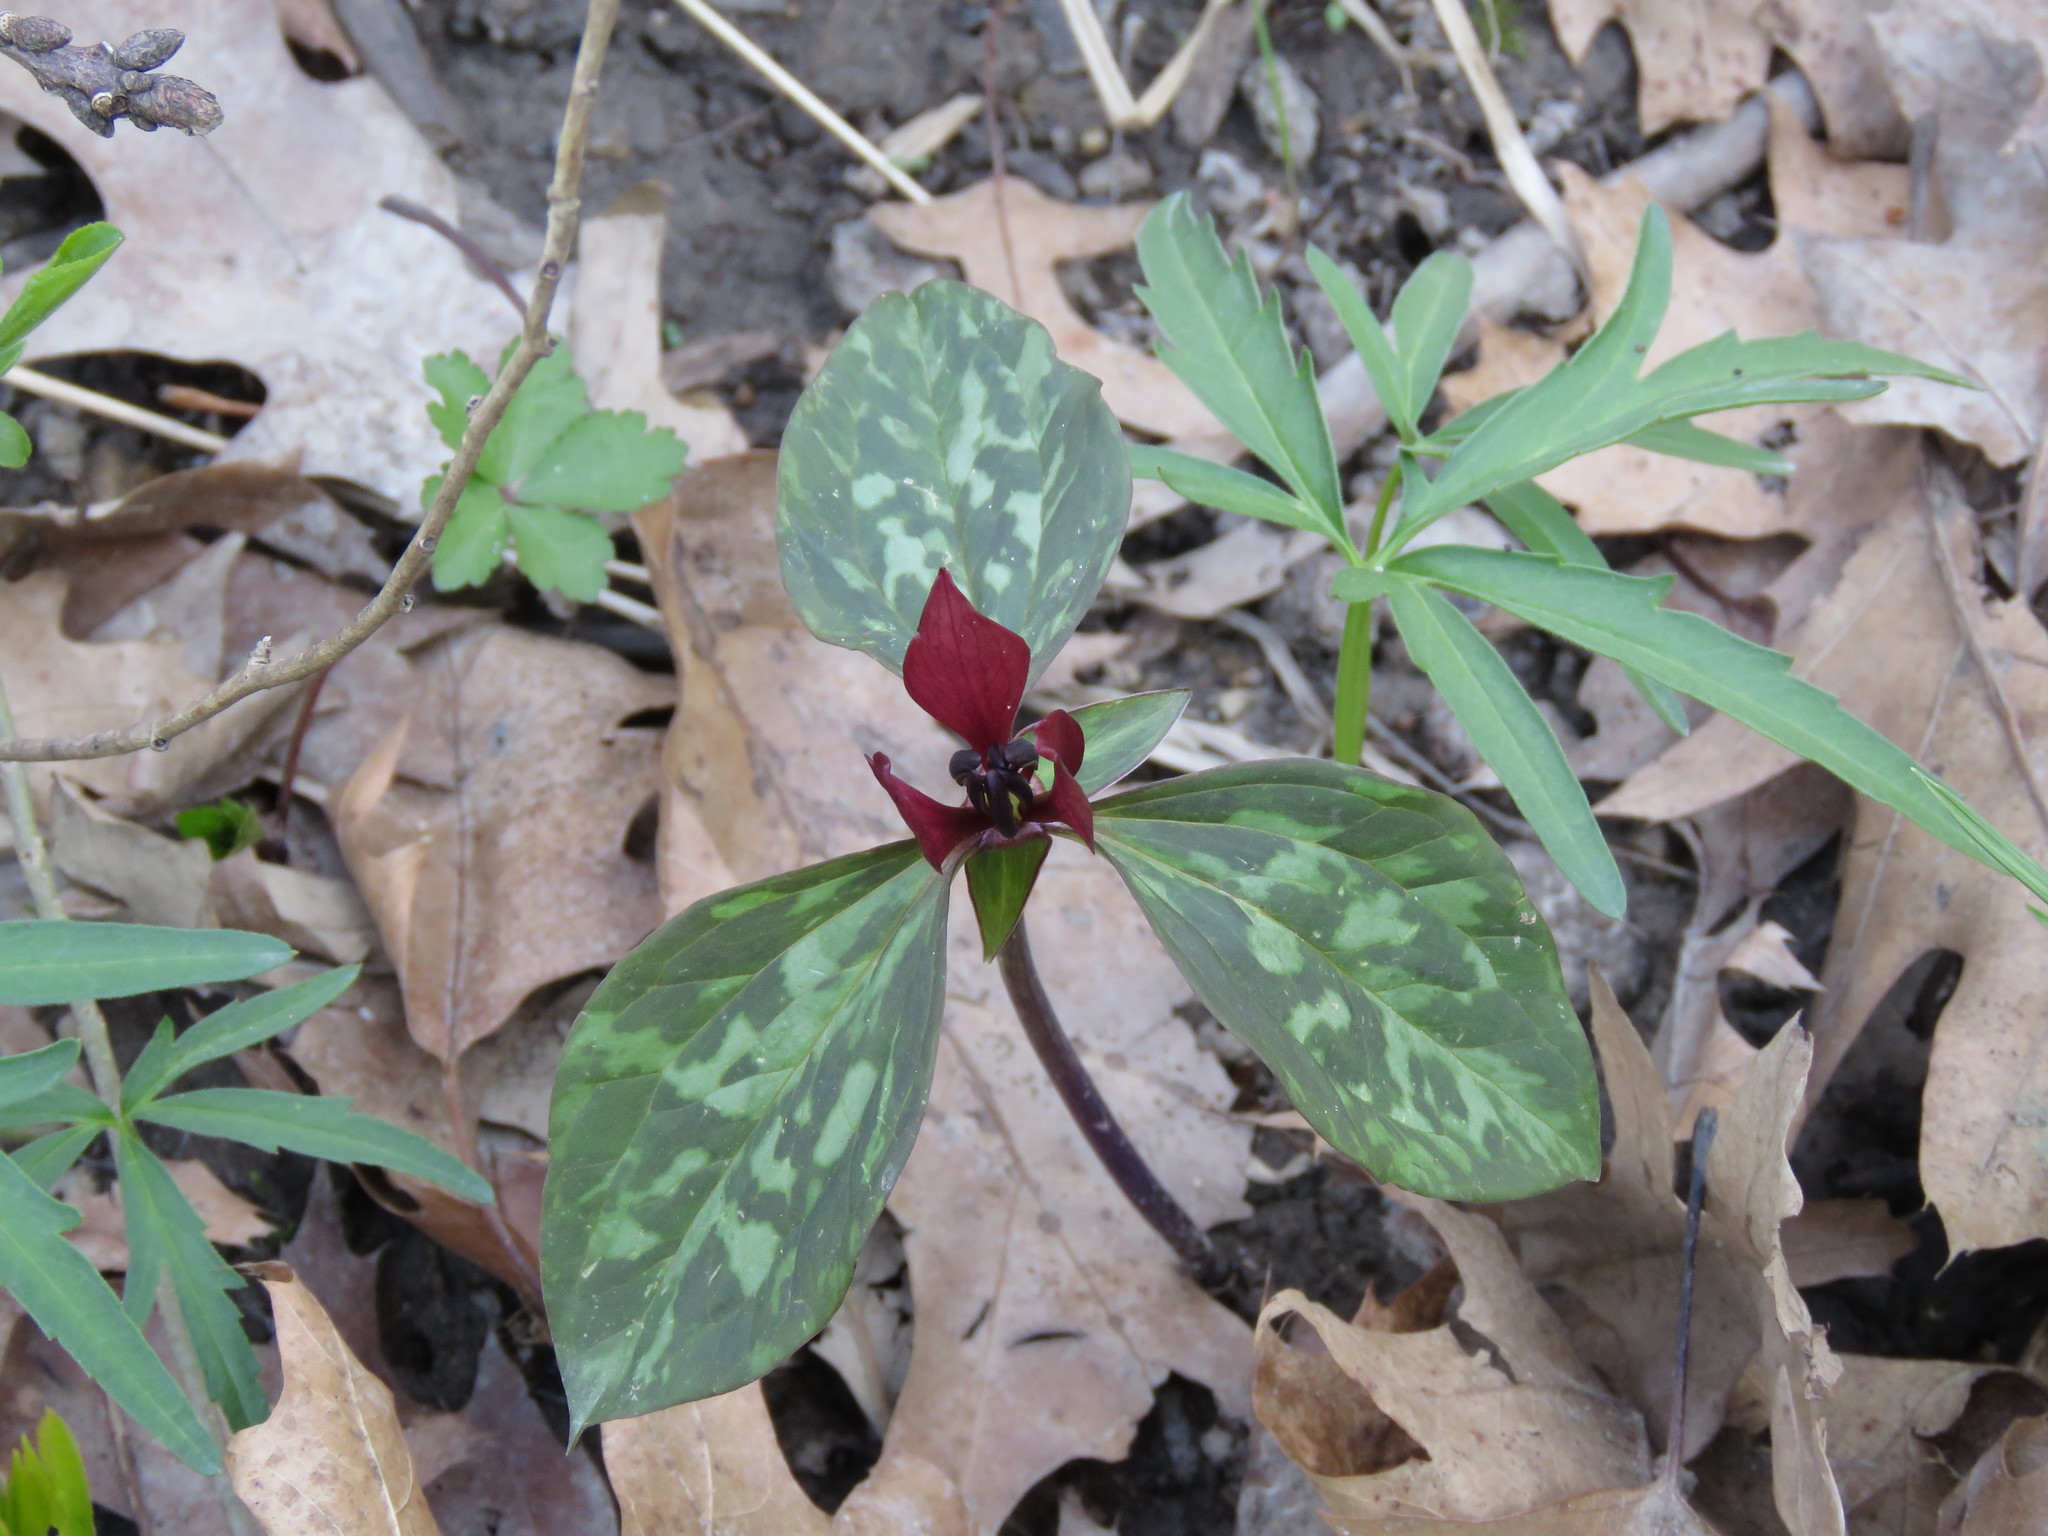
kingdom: Plantae
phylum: Tracheophyta
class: Liliopsida
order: Liliales
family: Melanthiaceae
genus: Trillium
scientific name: Trillium recurvatum
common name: Bloody butcher
